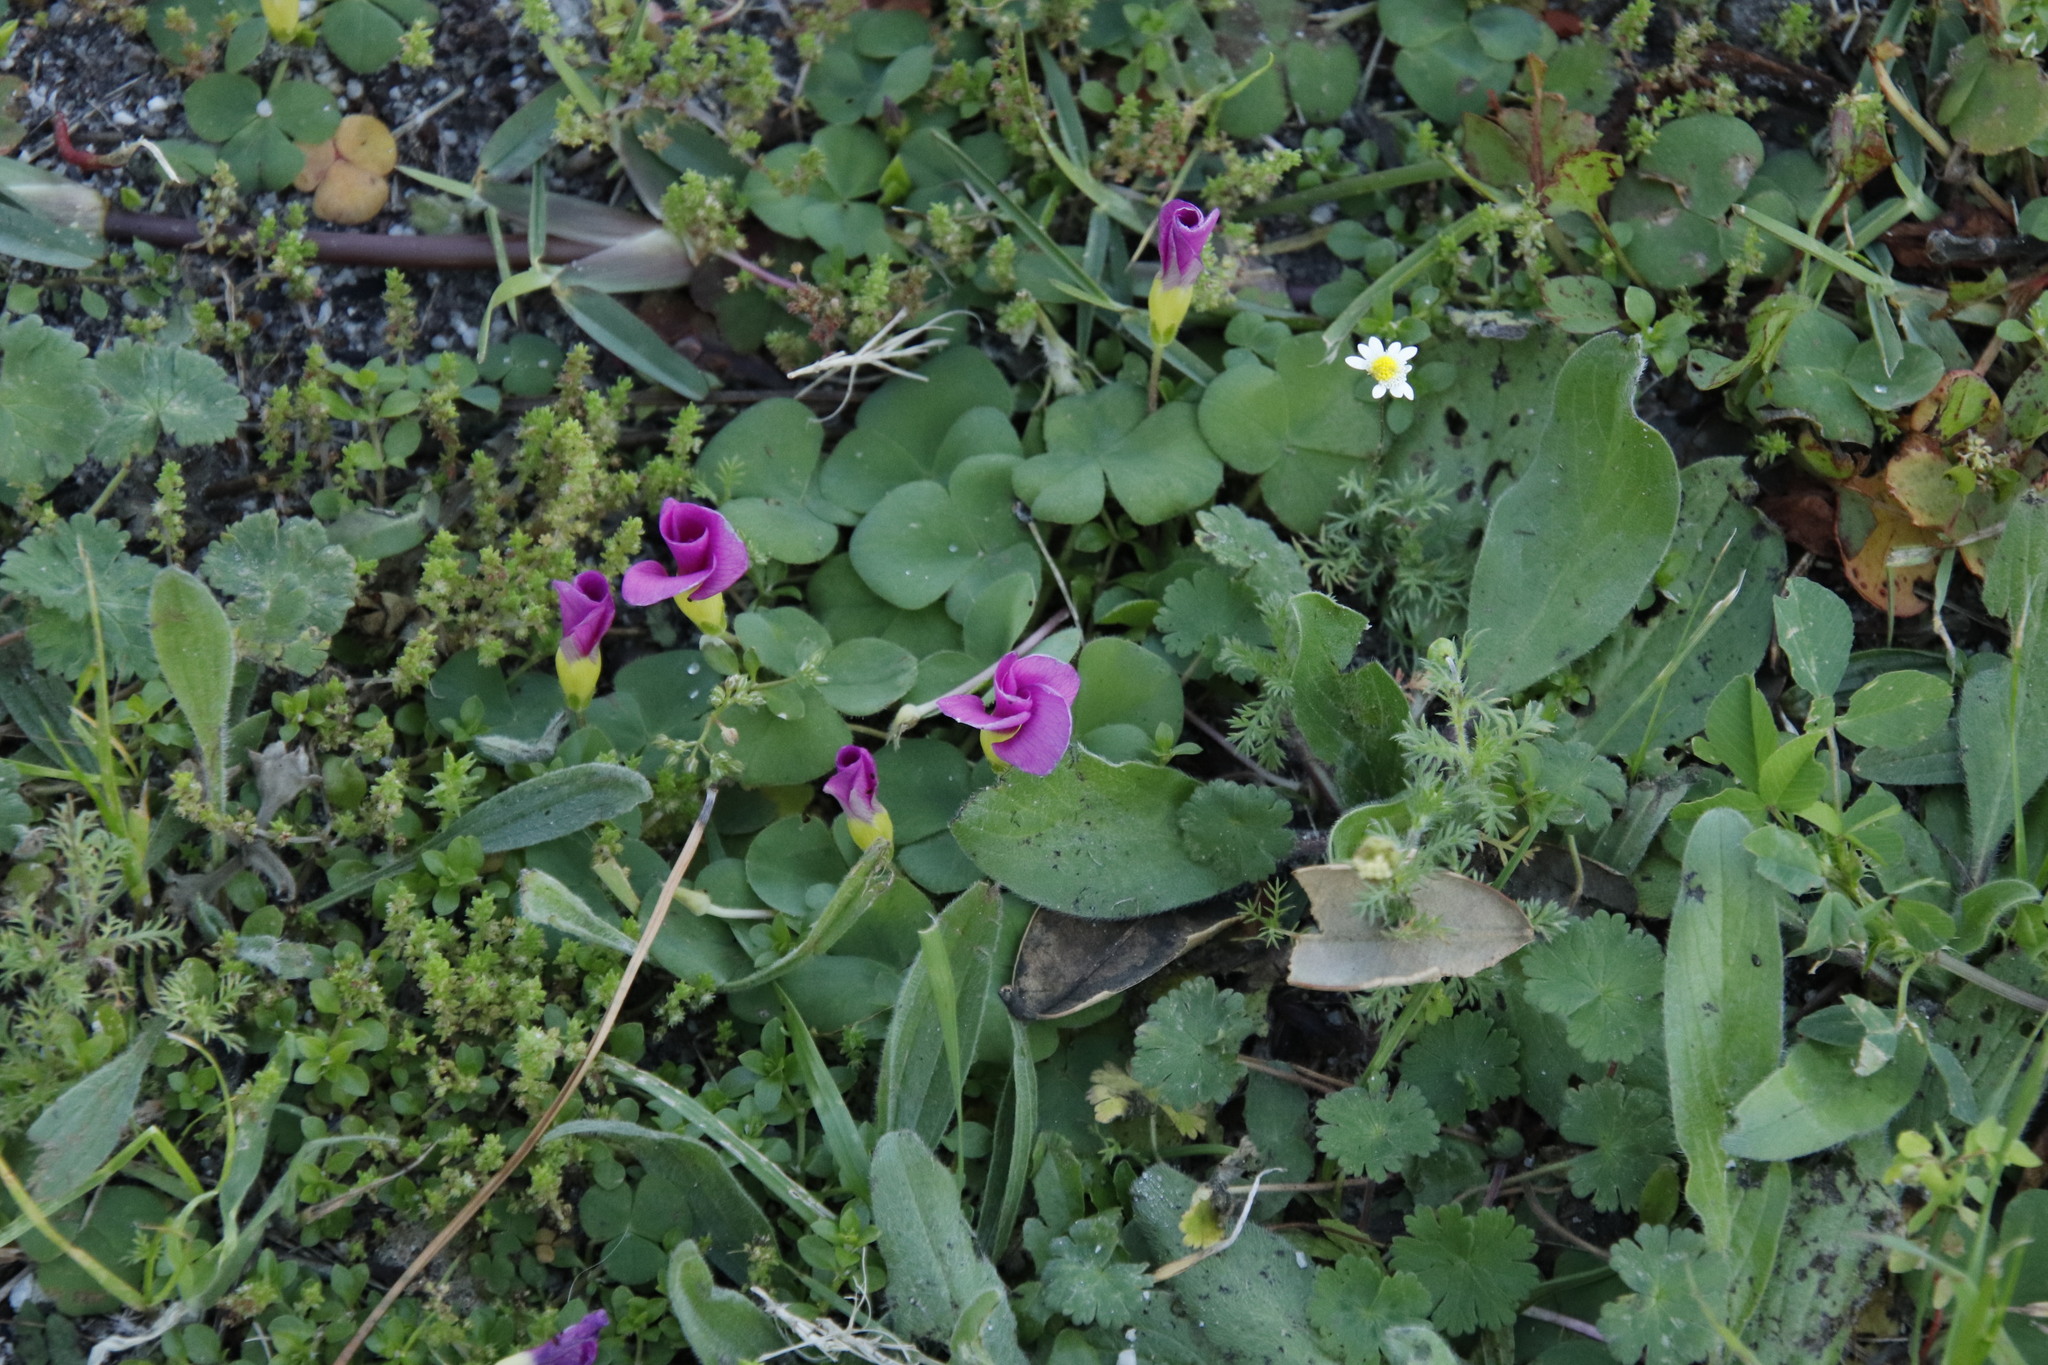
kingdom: Plantae
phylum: Tracheophyta
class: Magnoliopsida
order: Oxalidales
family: Oxalidaceae
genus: Oxalis
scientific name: Oxalis purpurea
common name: Purple woodsorrel
